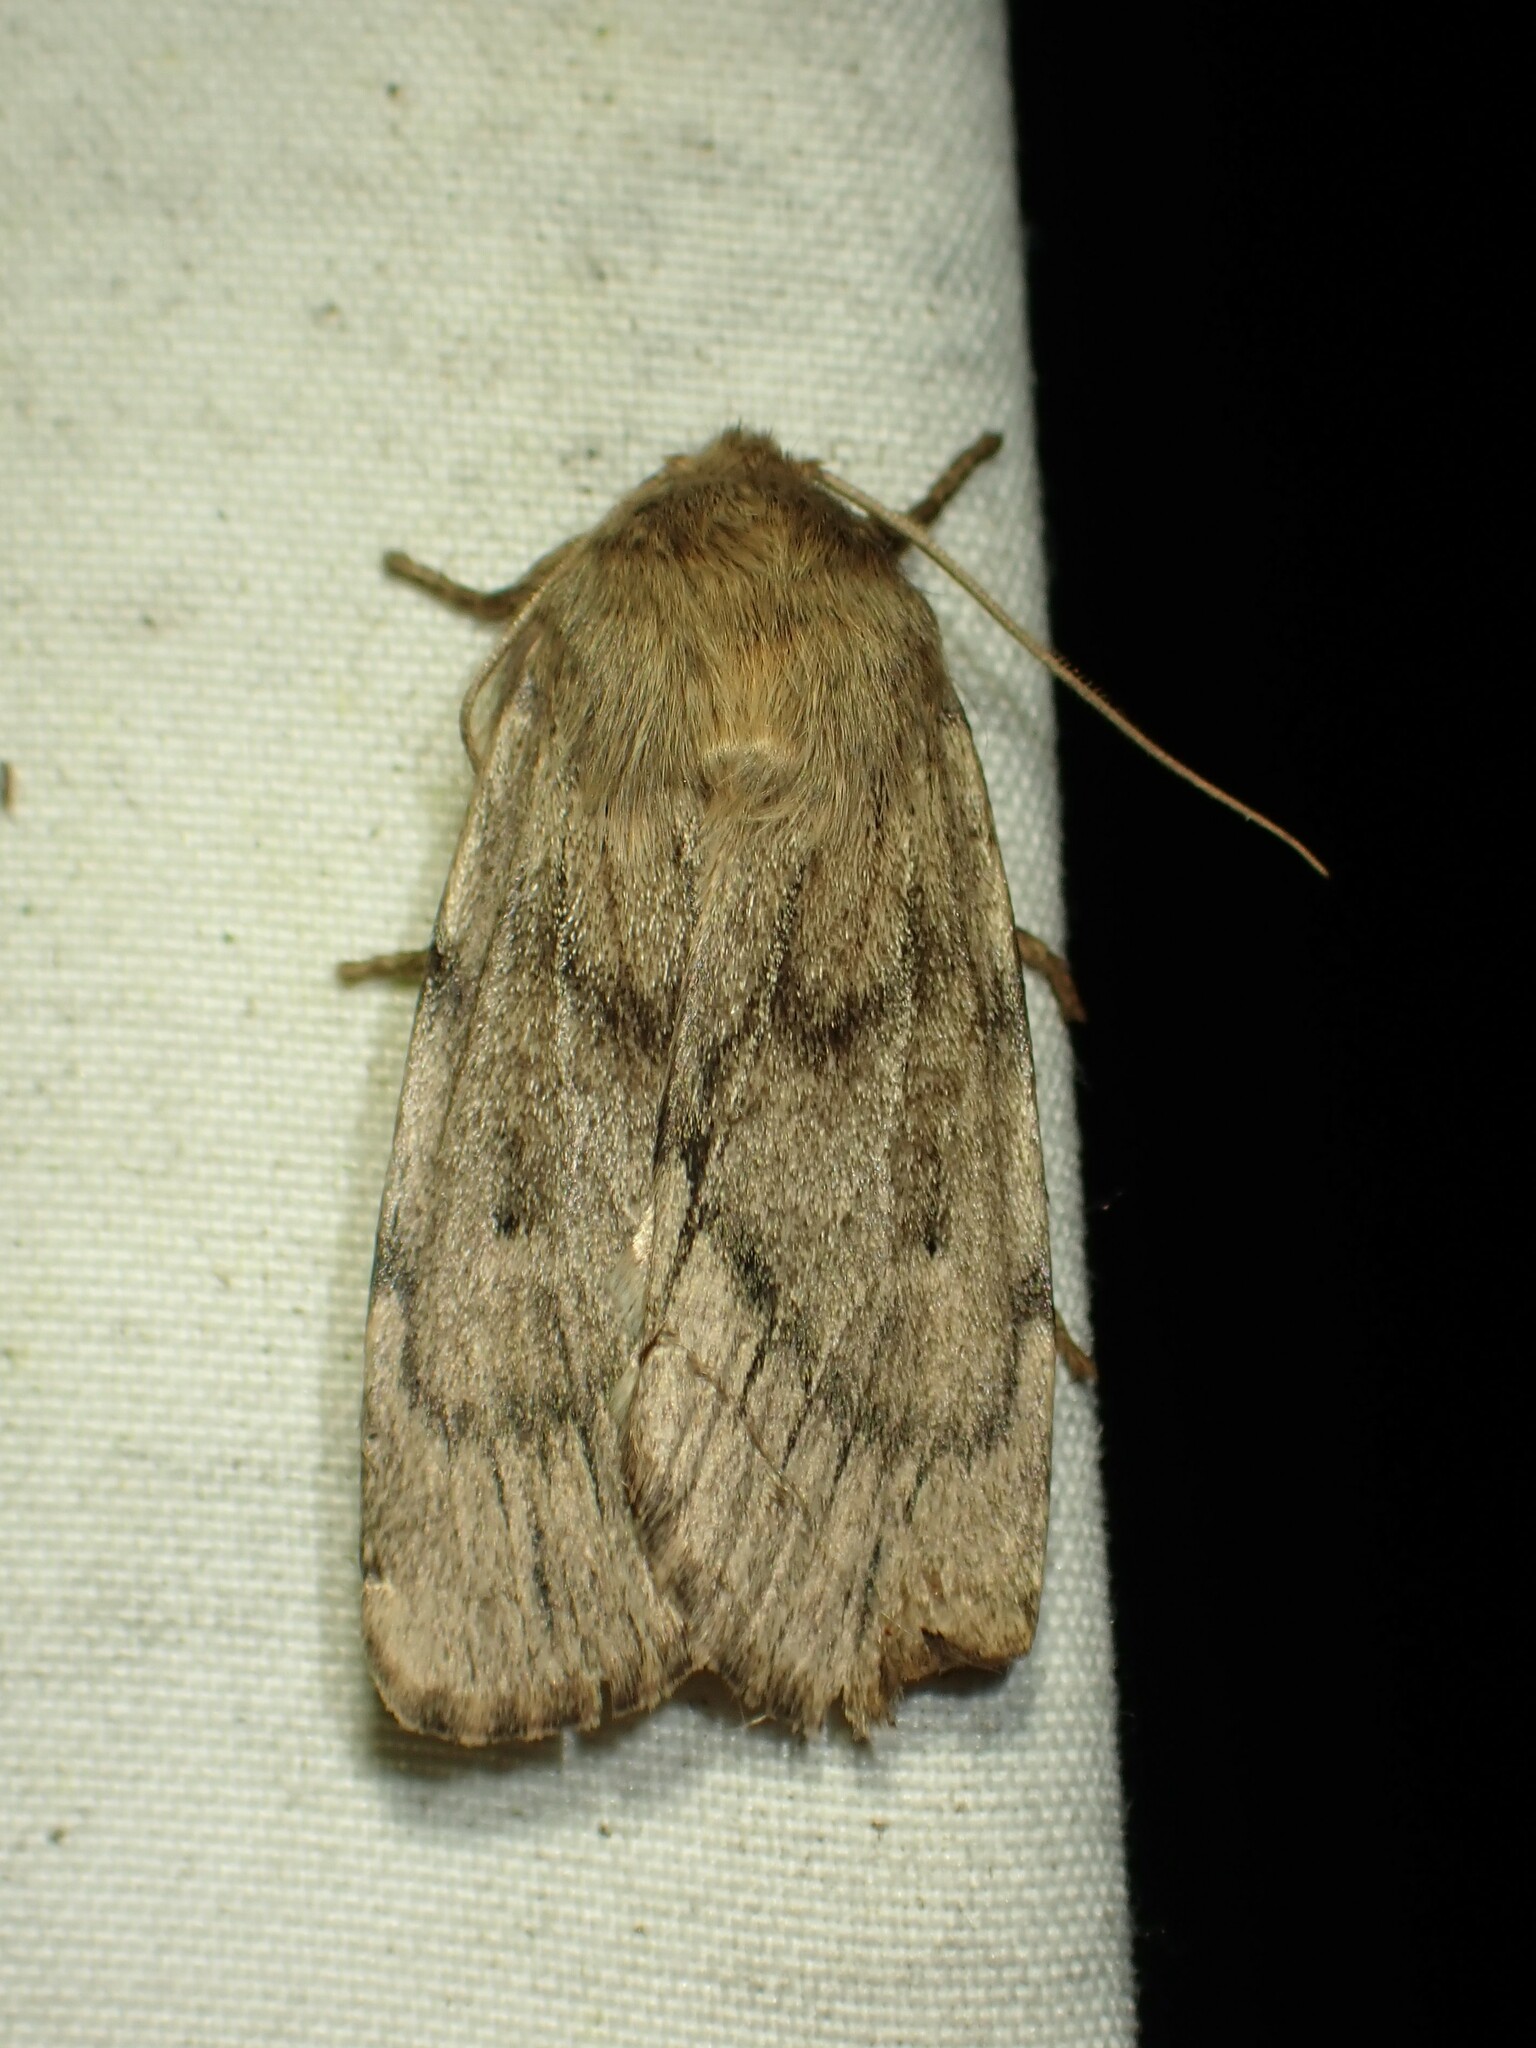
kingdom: Animalia
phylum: Arthropoda
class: Insecta
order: Lepidoptera
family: Noctuidae
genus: Ufeus
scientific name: Ufeus satyricus
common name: Brown satyr moth
